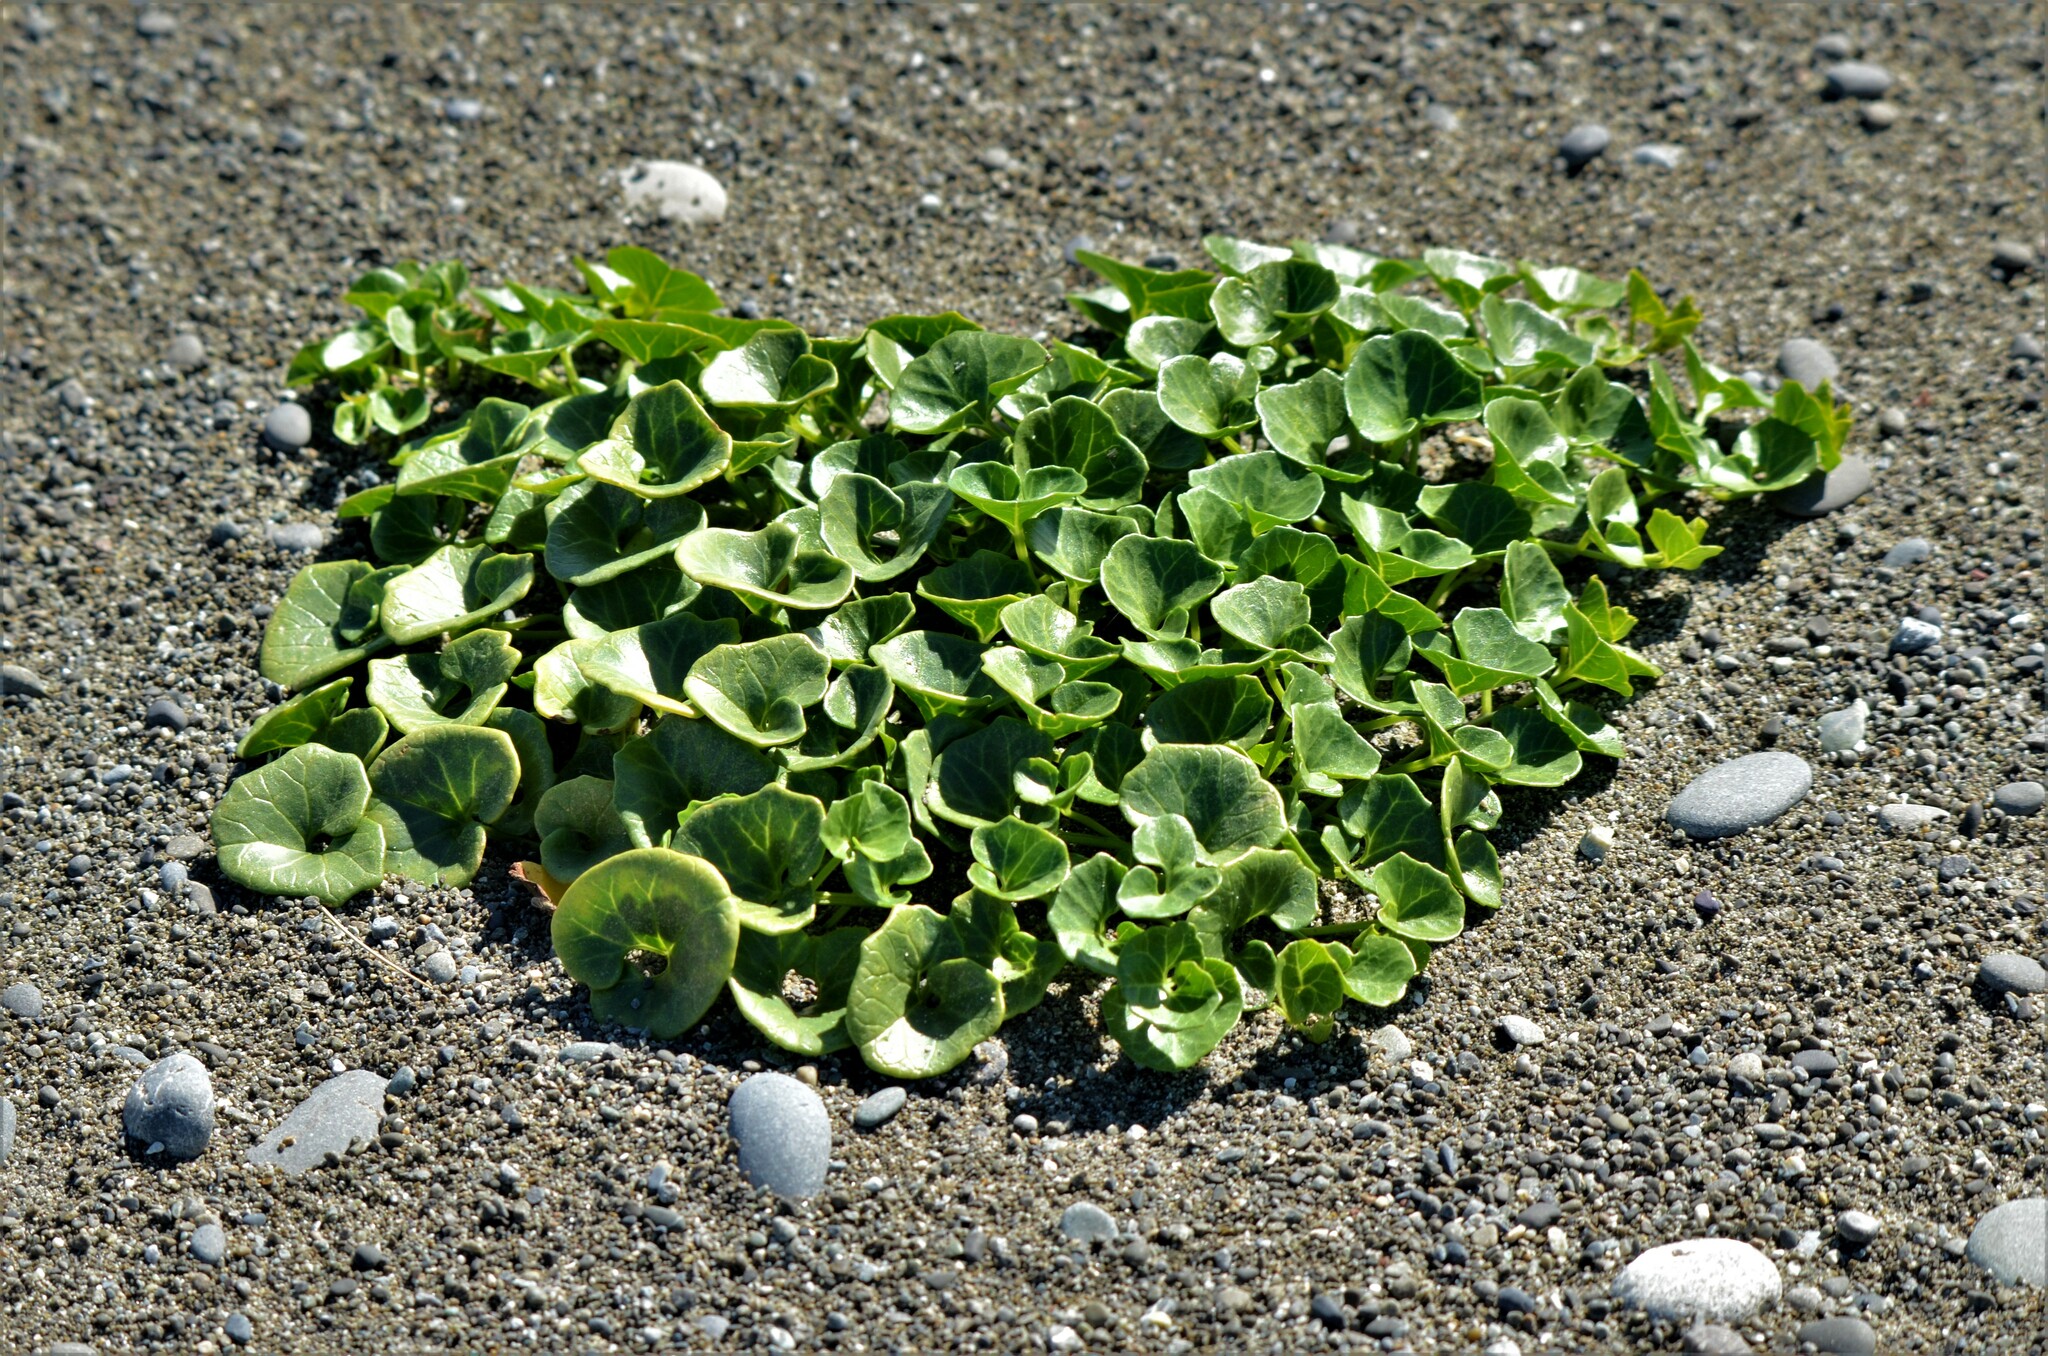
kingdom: Plantae
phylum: Tracheophyta
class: Magnoliopsida
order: Solanales
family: Convolvulaceae
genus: Calystegia
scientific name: Calystegia soldanella
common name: Sea bindweed
